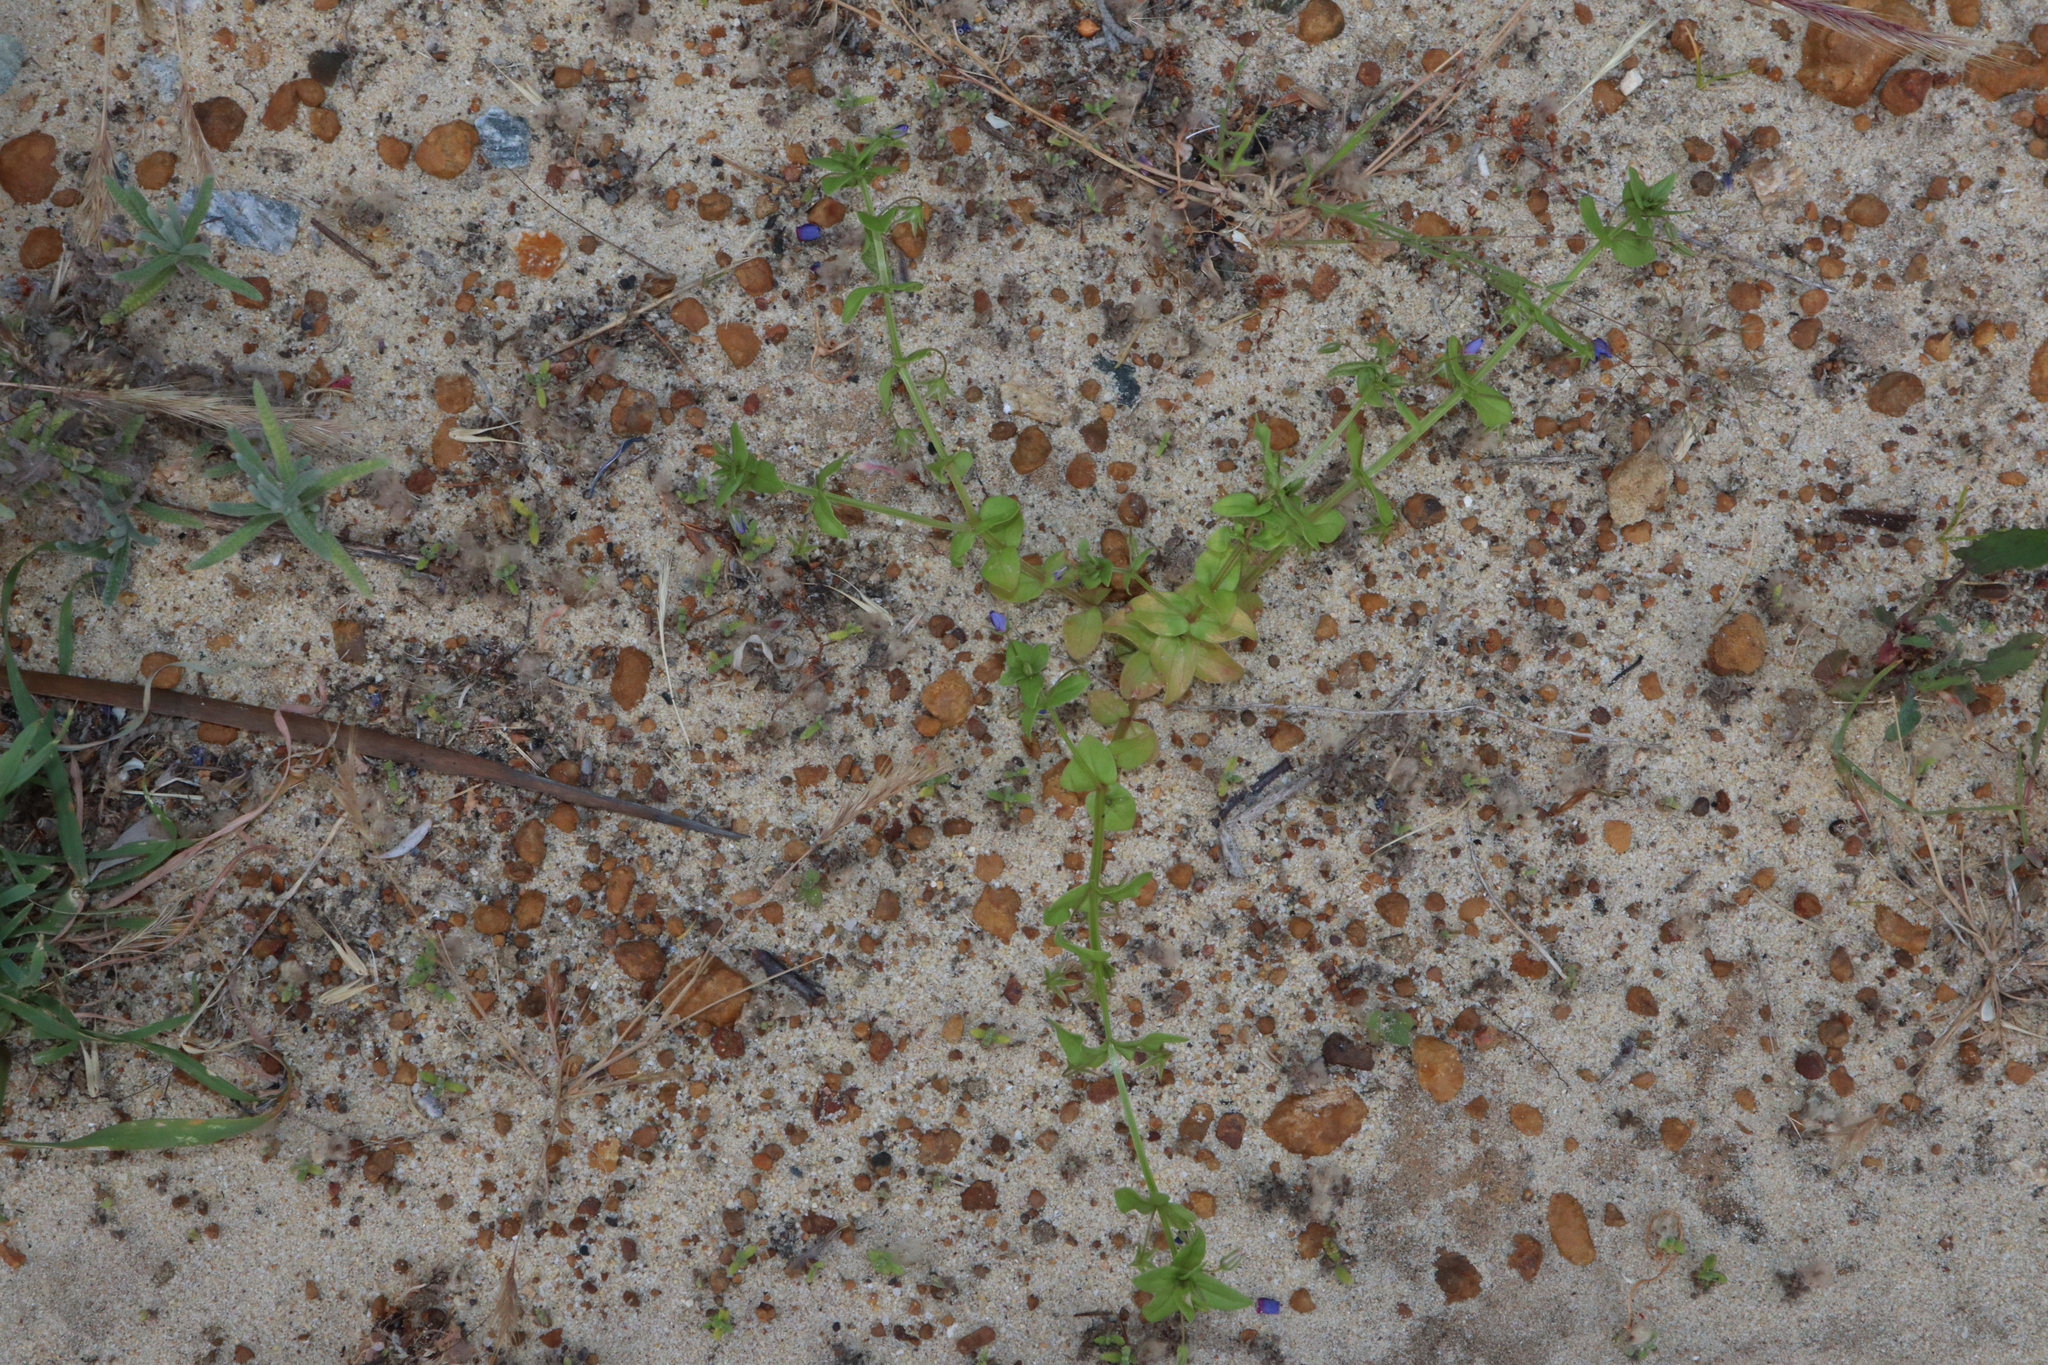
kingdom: Plantae
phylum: Tracheophyta
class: Magnoliopsida
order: Ericales
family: Primulaceae
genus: Lysimachia
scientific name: Lysimachia loeflingii
